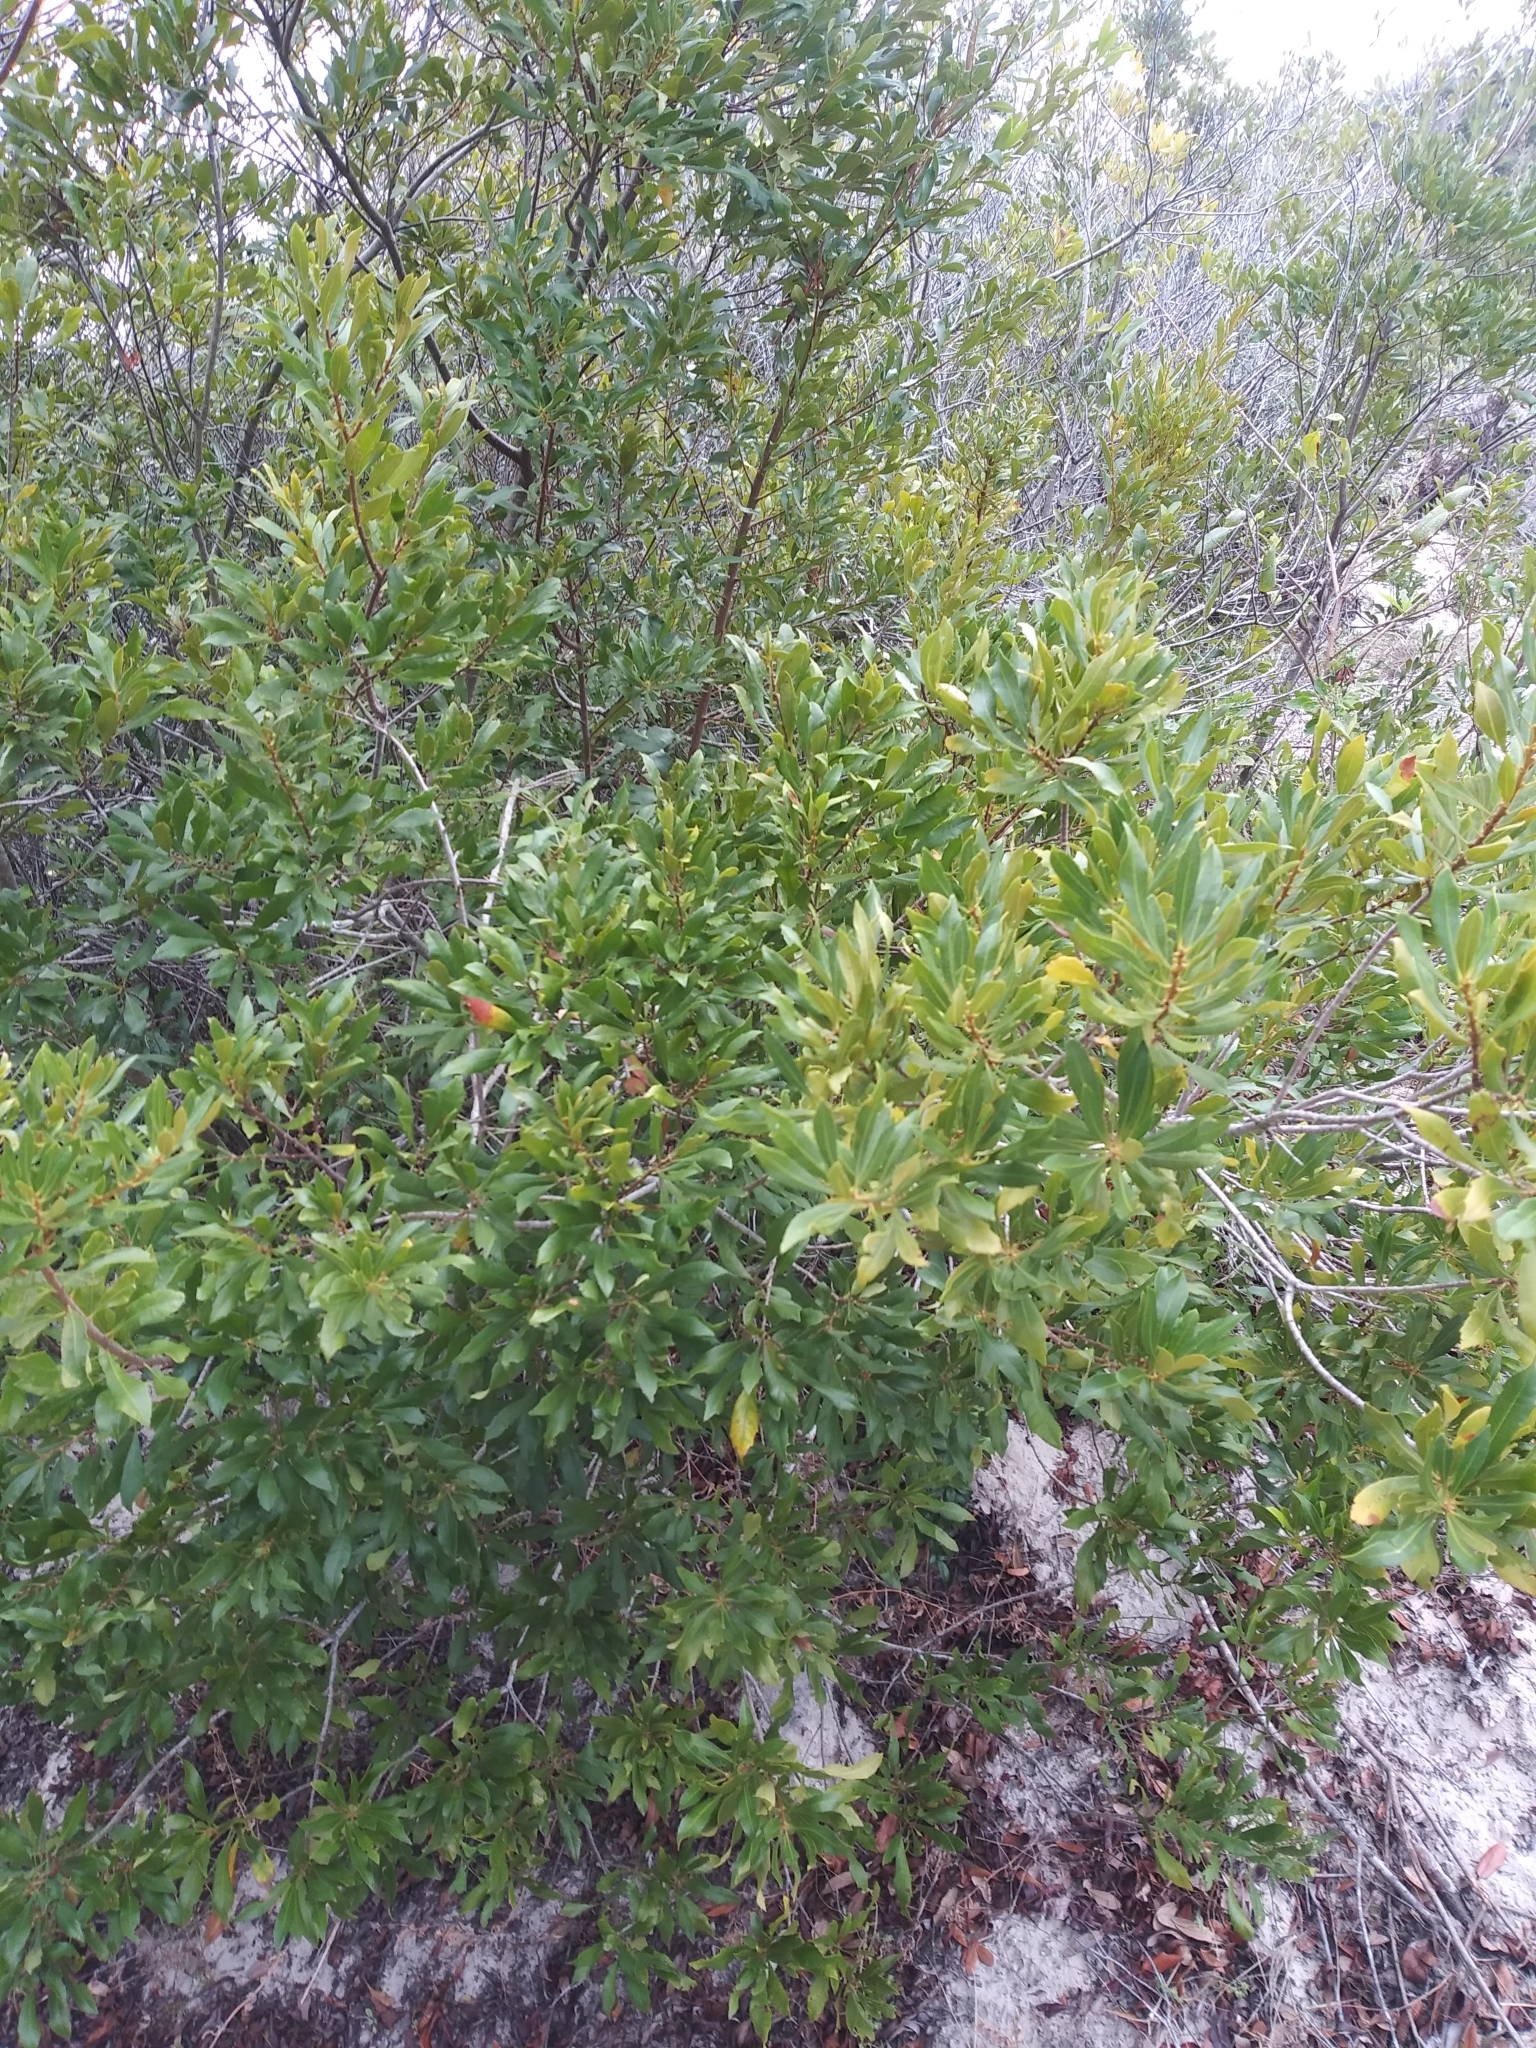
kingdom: Plantae
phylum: Tracheophyta
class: Magnoliopsida
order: Fagales
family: Myricaceae
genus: Morella
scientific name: Morella cerifera
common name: Wax myrtle
